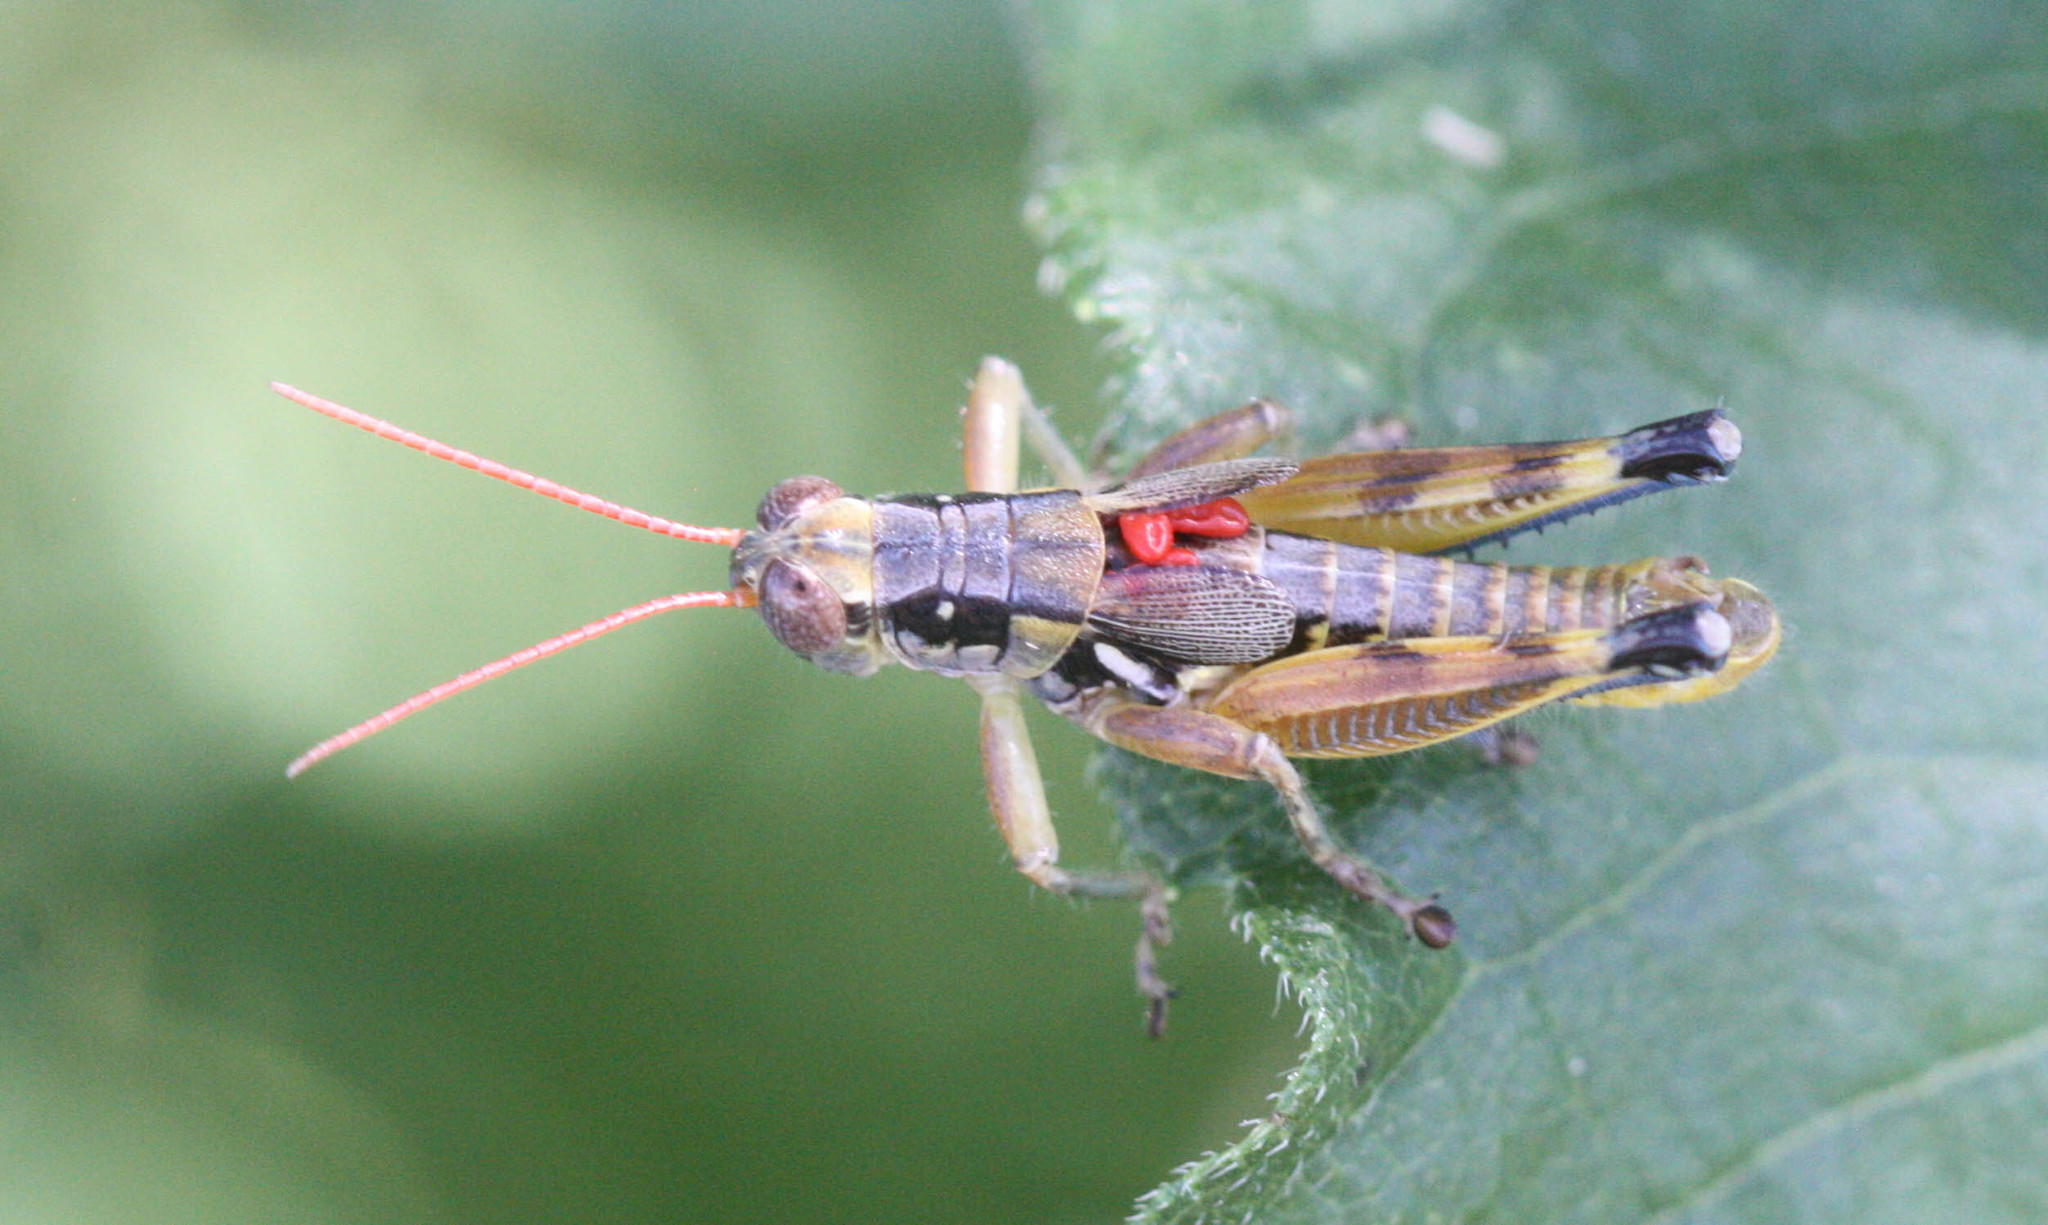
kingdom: Animalia
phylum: Arthropoda
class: Insecta
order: Orthoptera
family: Acrididae
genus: Melanoplus
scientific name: Melanoplus aridus
